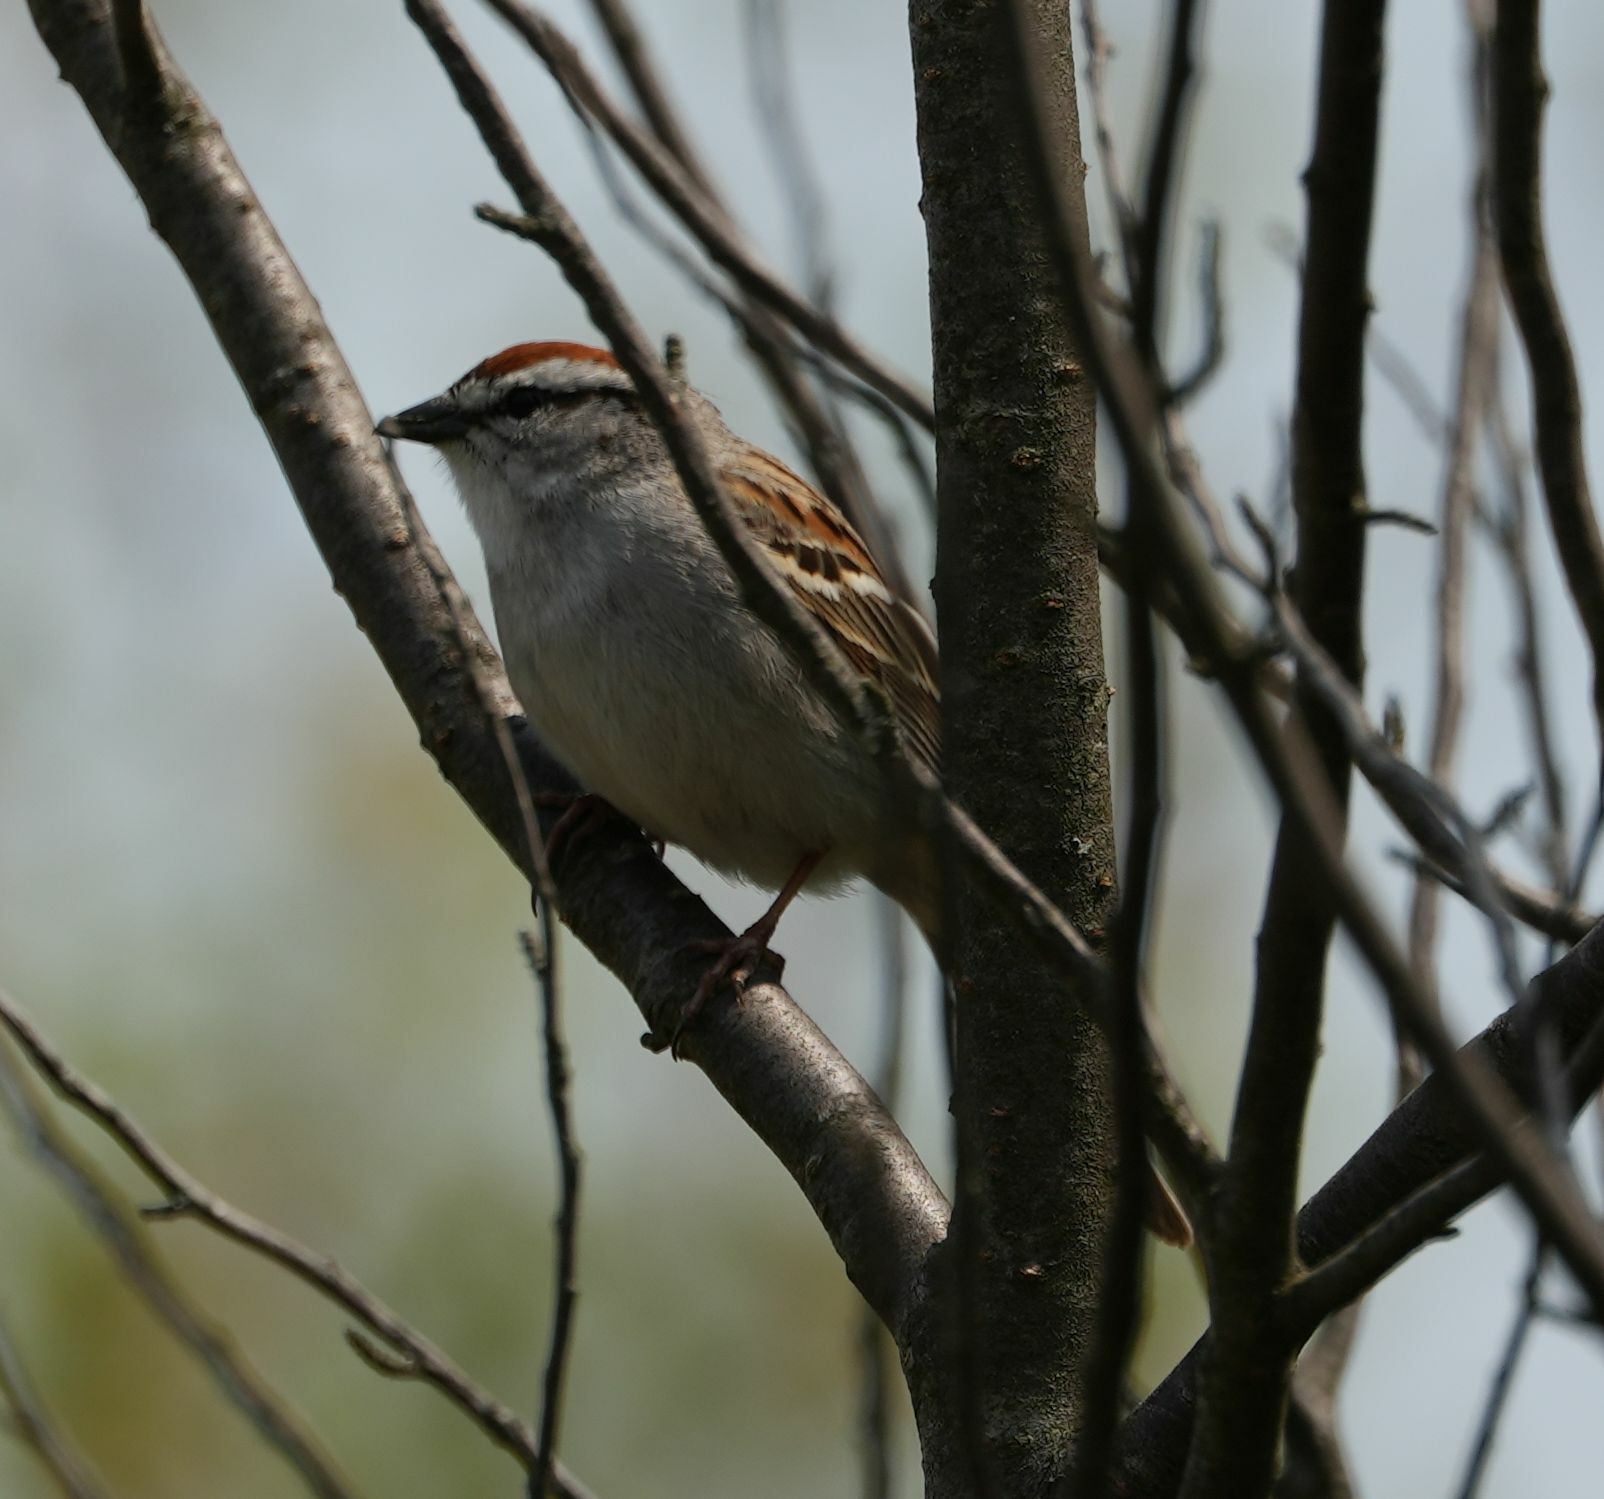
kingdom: Animalia
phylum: Chordata
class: Aves
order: Passeriformes
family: Passerellidae
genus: Spizella
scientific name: Spizella passerina
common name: Chipping sparrow
